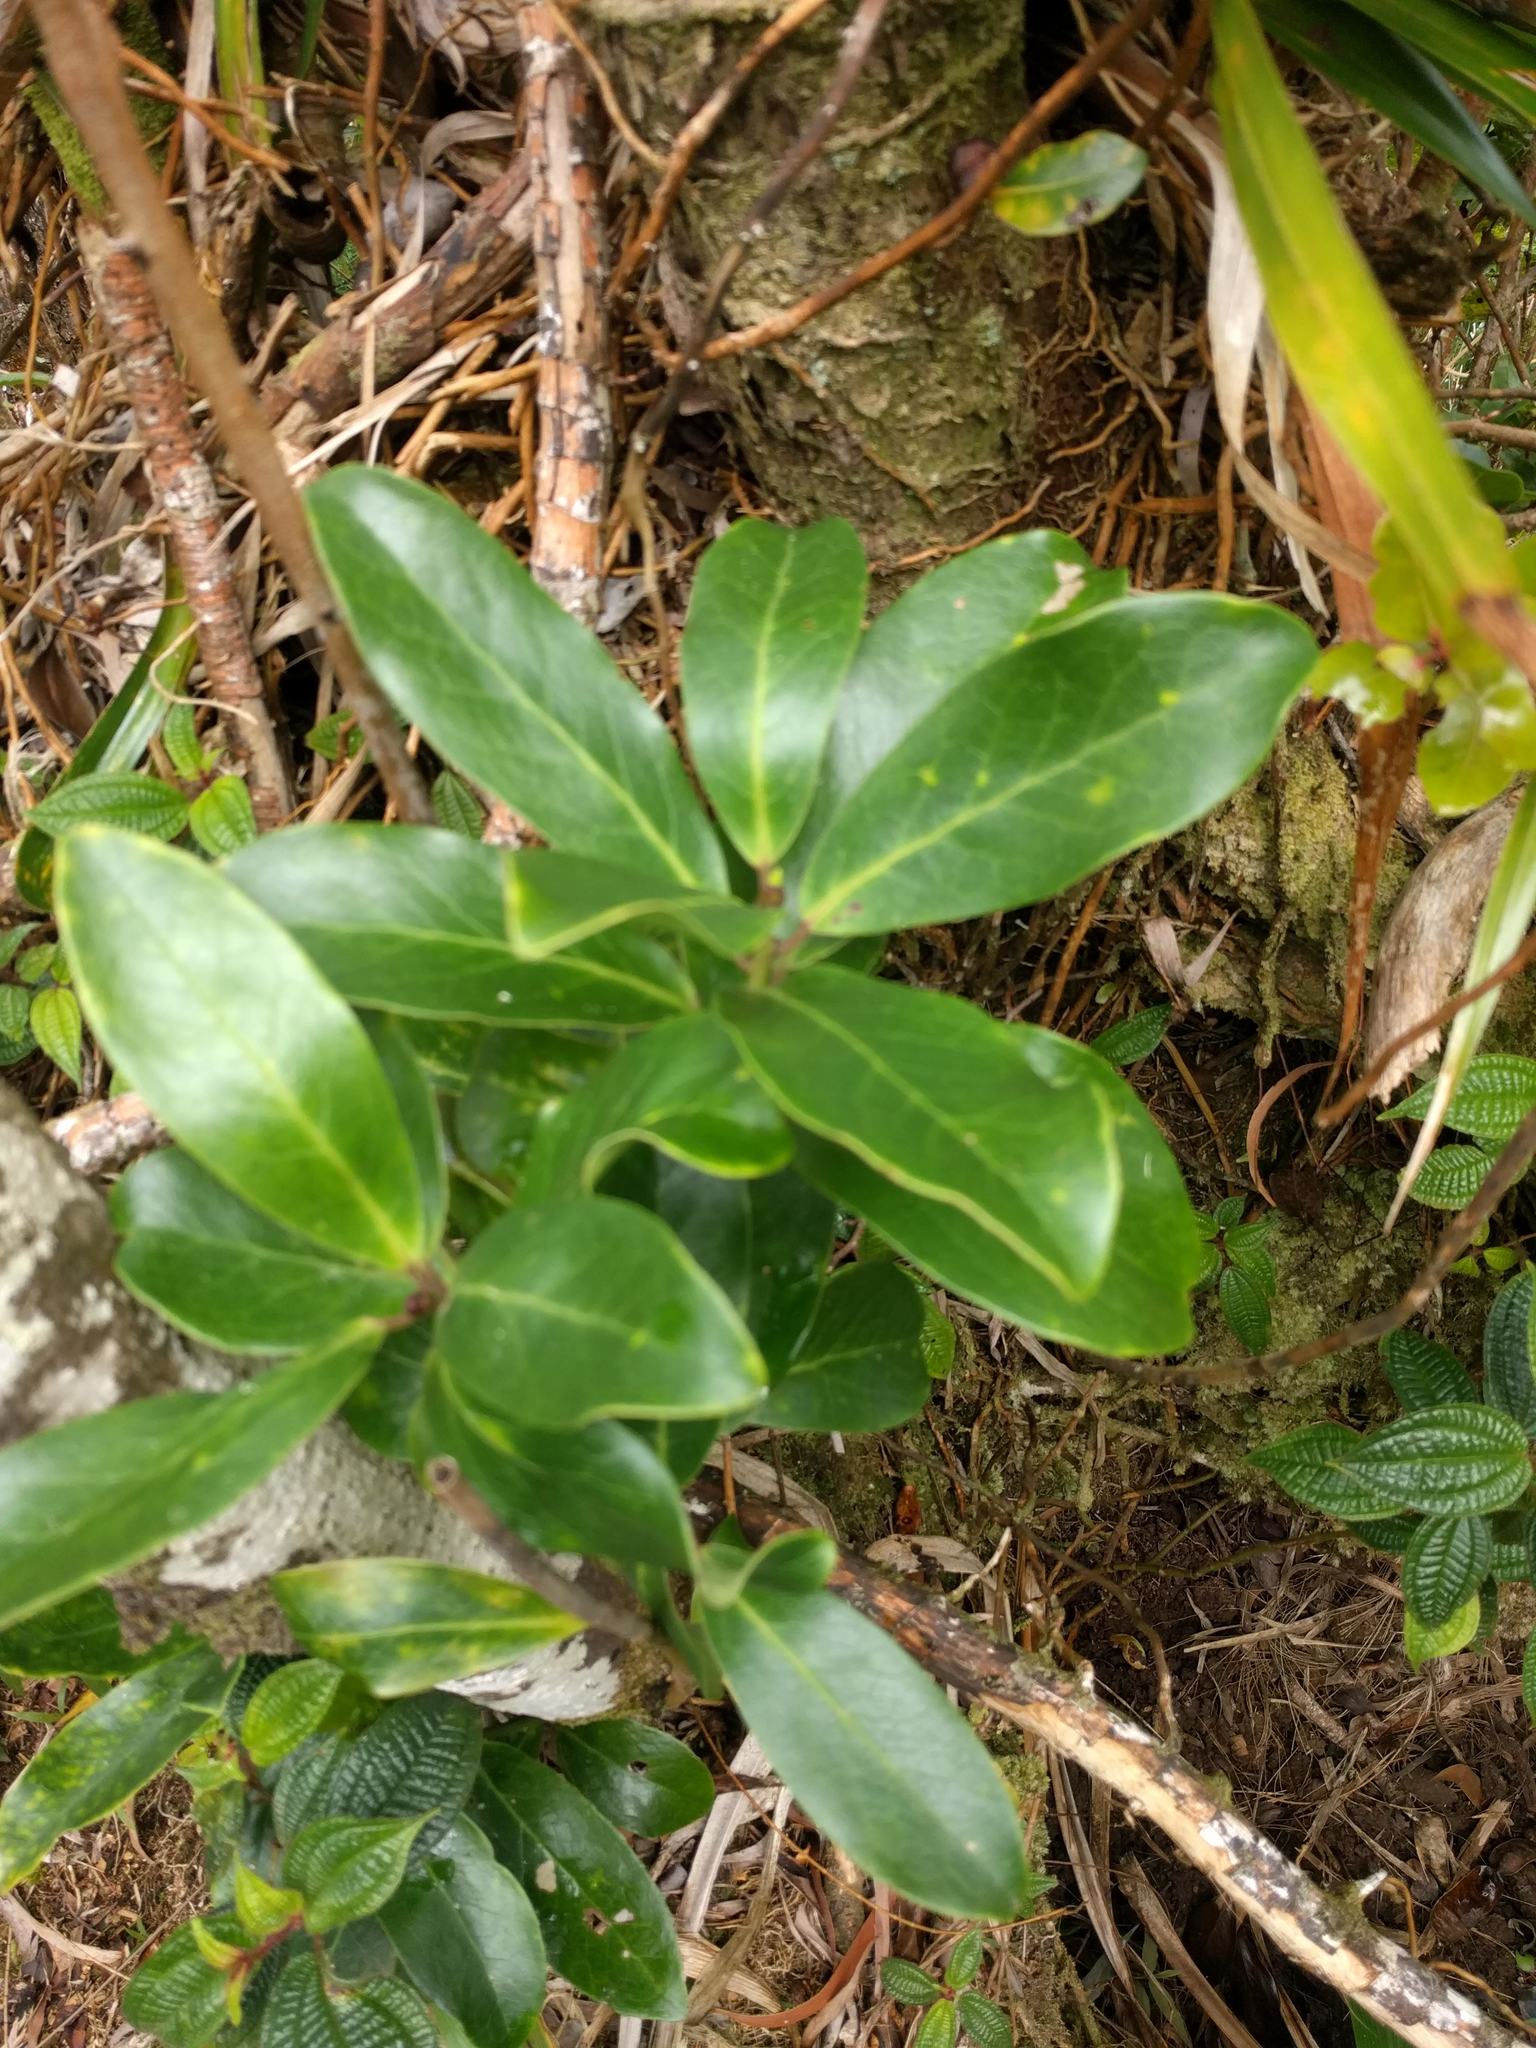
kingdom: Plantae
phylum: Tracheophyta
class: Magnoliopsida
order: Myrtales
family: Myrtaceae
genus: Metrosideros
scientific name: Metrosideros polymorpha
